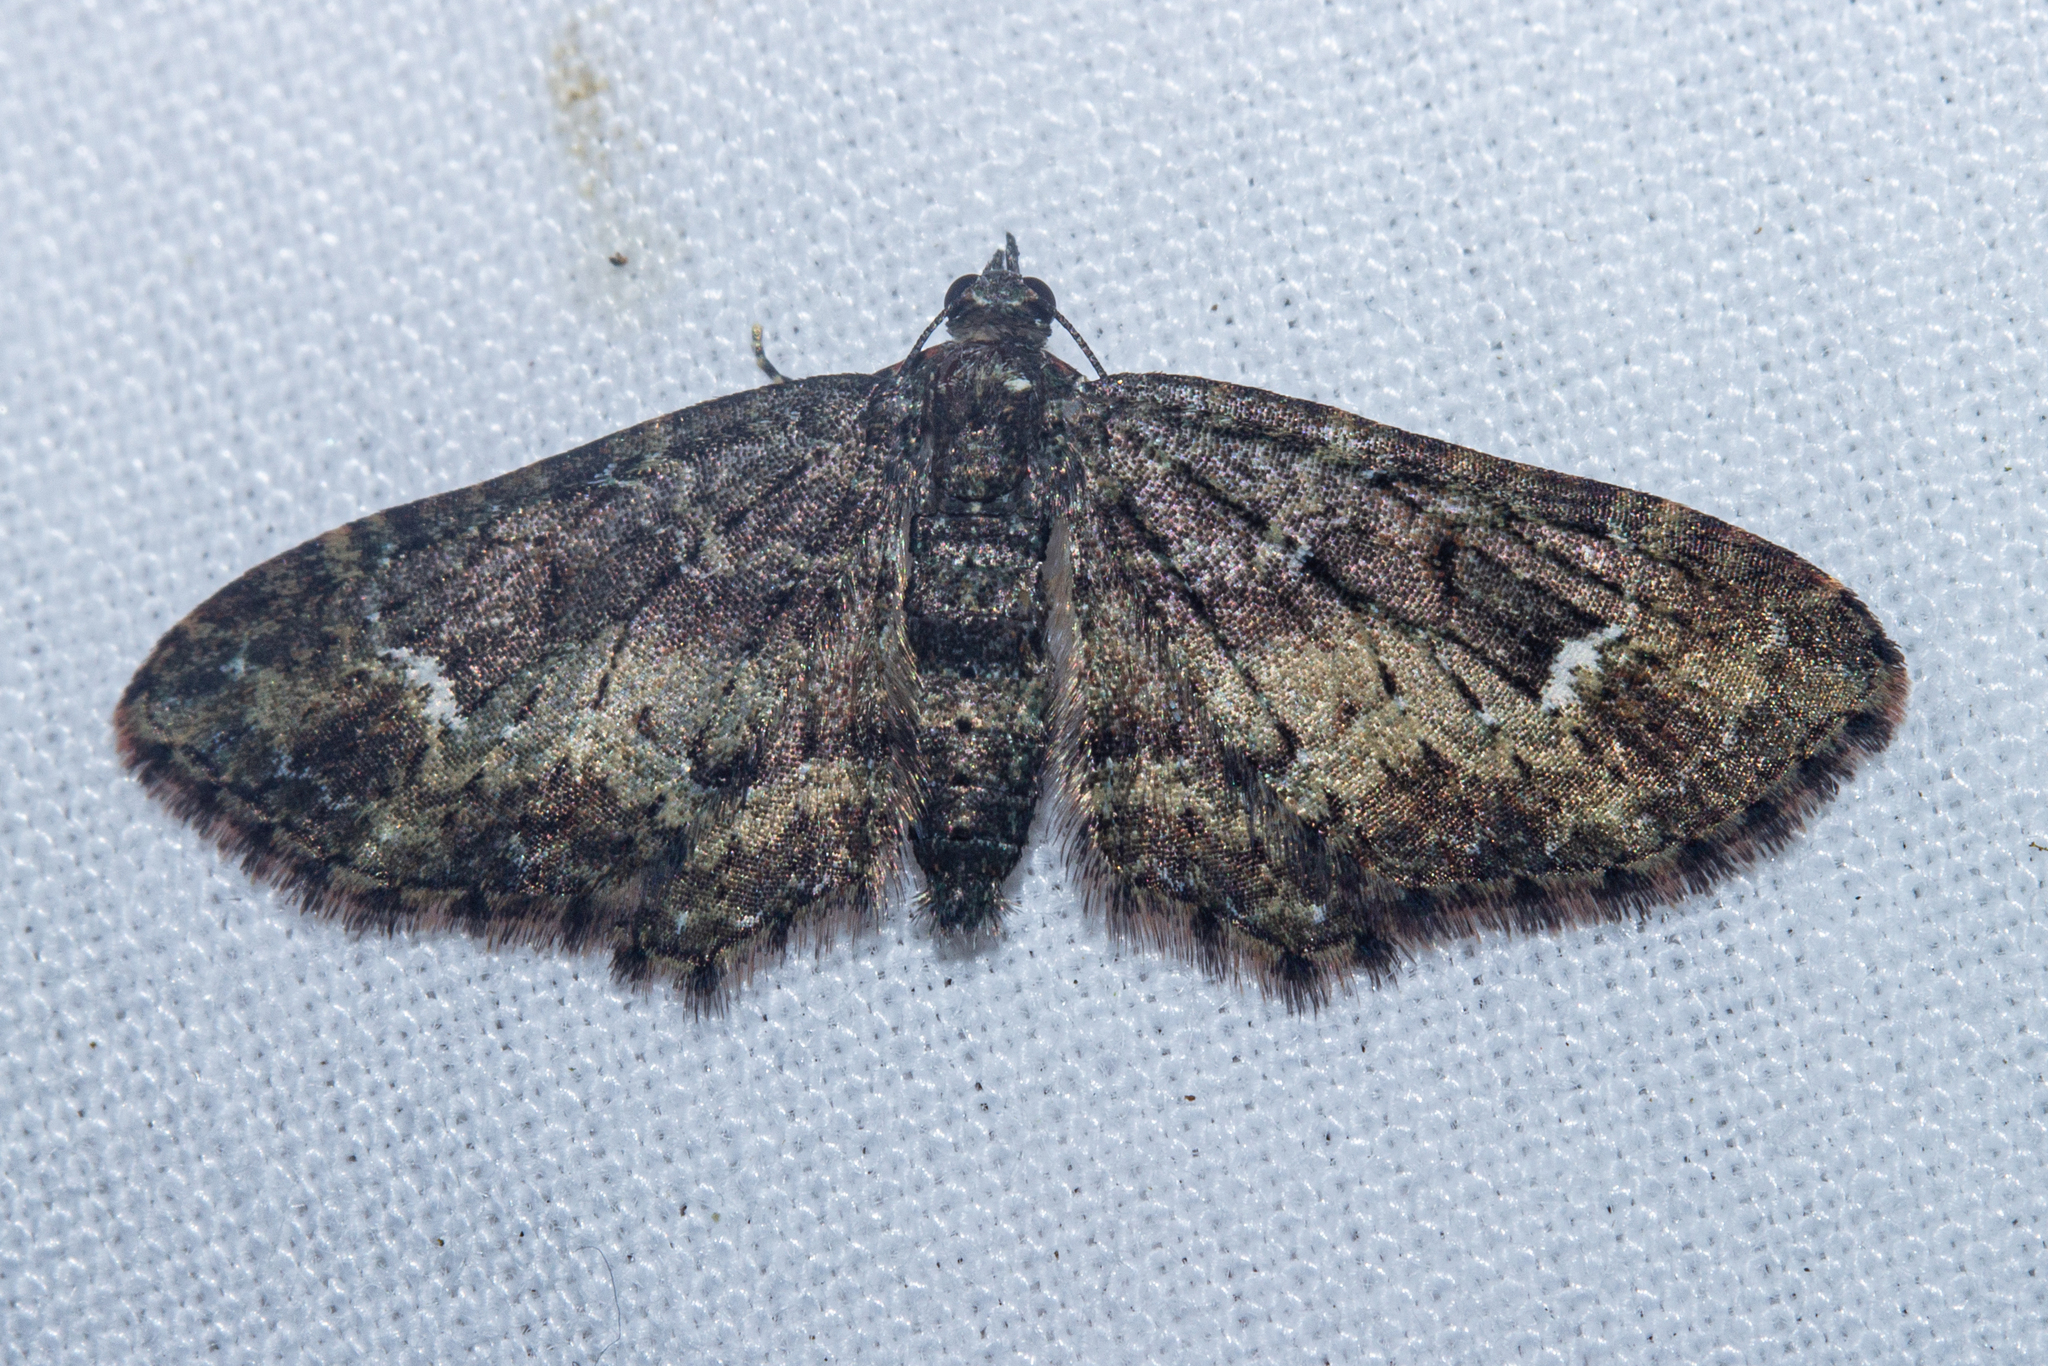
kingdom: Animalia
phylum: Arthropoda
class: Insecta
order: Lepidoptera
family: Geometridae
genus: Pasiphilodes
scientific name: Pasiphilodes testulata
